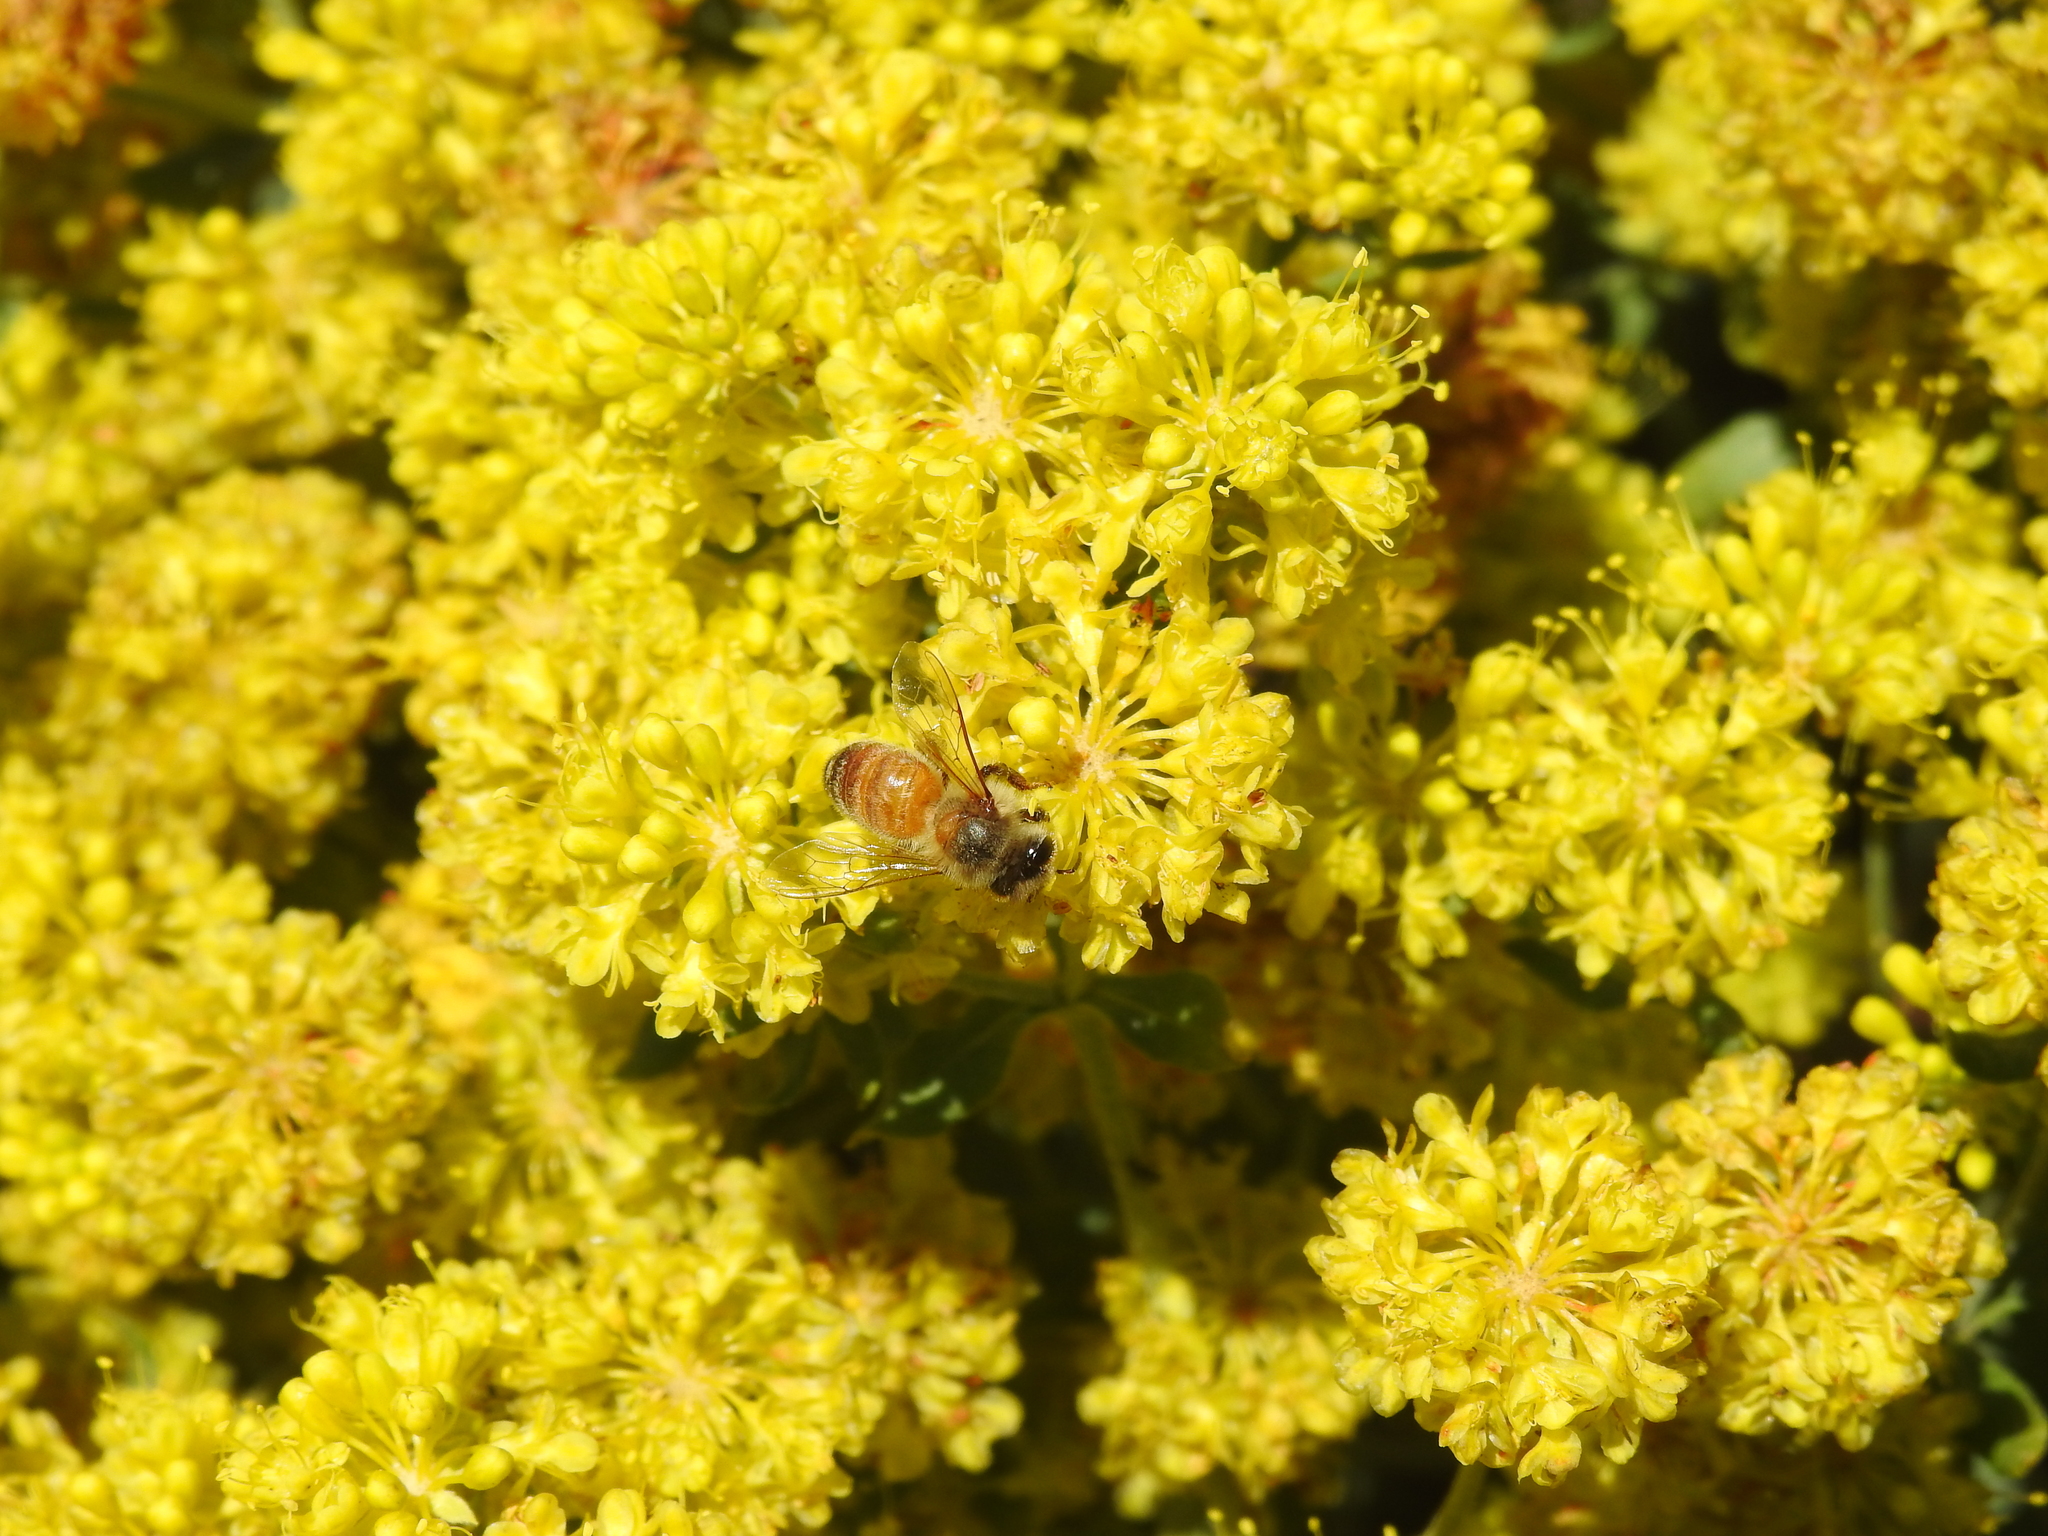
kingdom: Animalia
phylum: Arthropoda
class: Insecta
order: Hymenoptera
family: Apidae
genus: Apis
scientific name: Apis mellifera
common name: Honey bee
